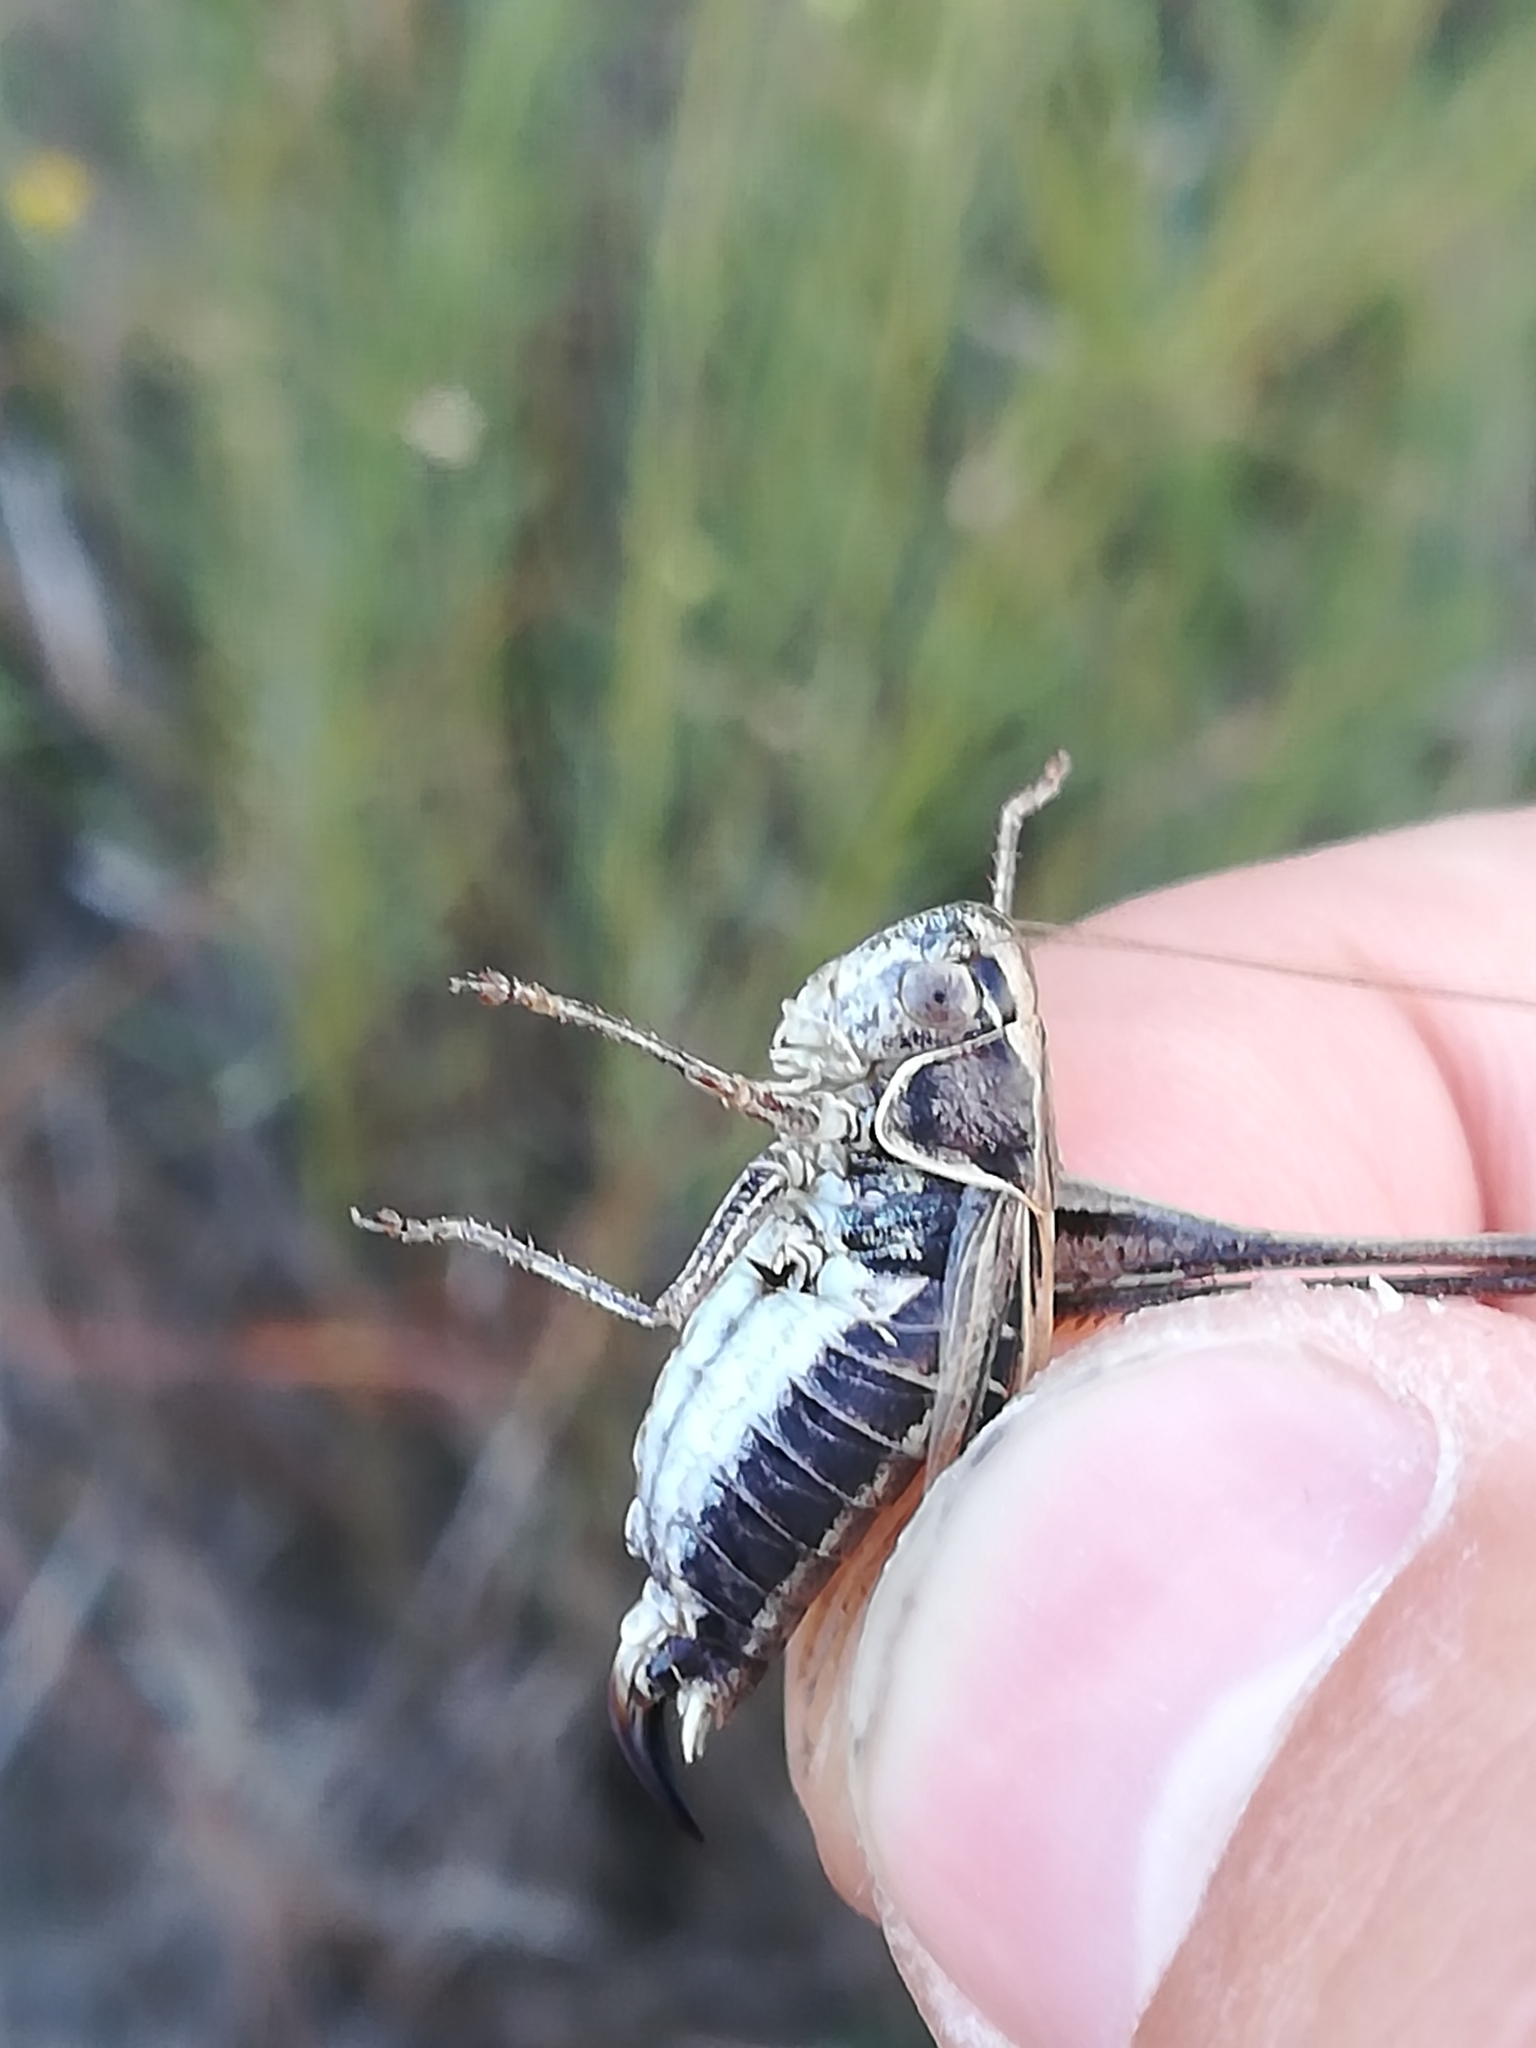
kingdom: Animalia
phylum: Arthropoda
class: Insecta
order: Orthoptera
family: Tettigoniidae
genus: Tessellana
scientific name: Tessellana tessellata
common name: Grasshopper
